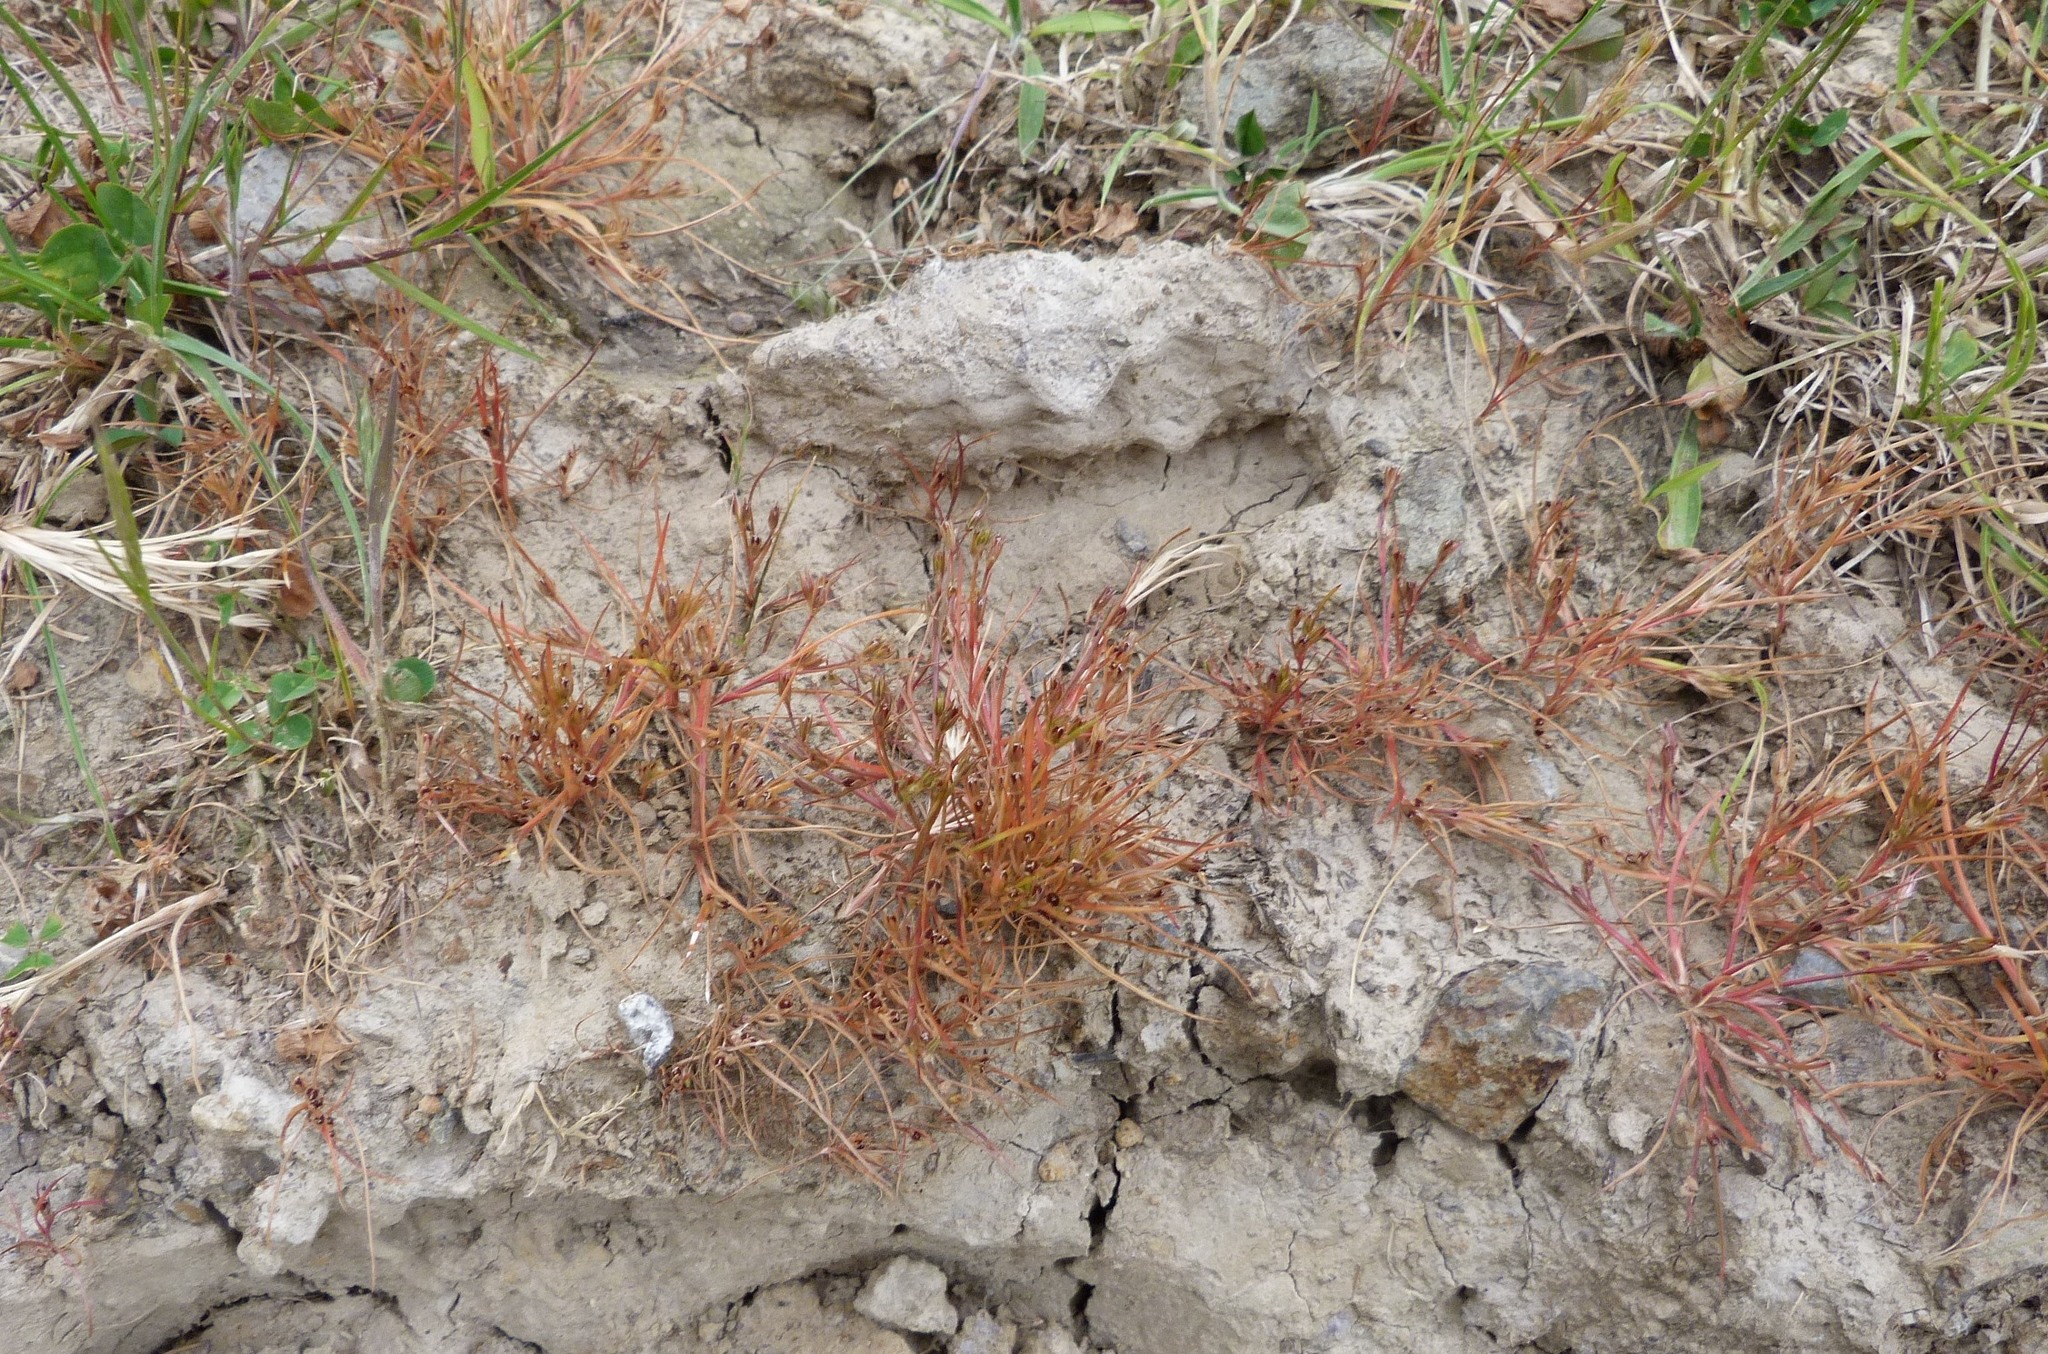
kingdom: Plantae
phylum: Tracheophyta
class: Liliopsida
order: Poales
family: Juncaceae
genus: Juncus
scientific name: Juncus bufonius
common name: Toad rush
